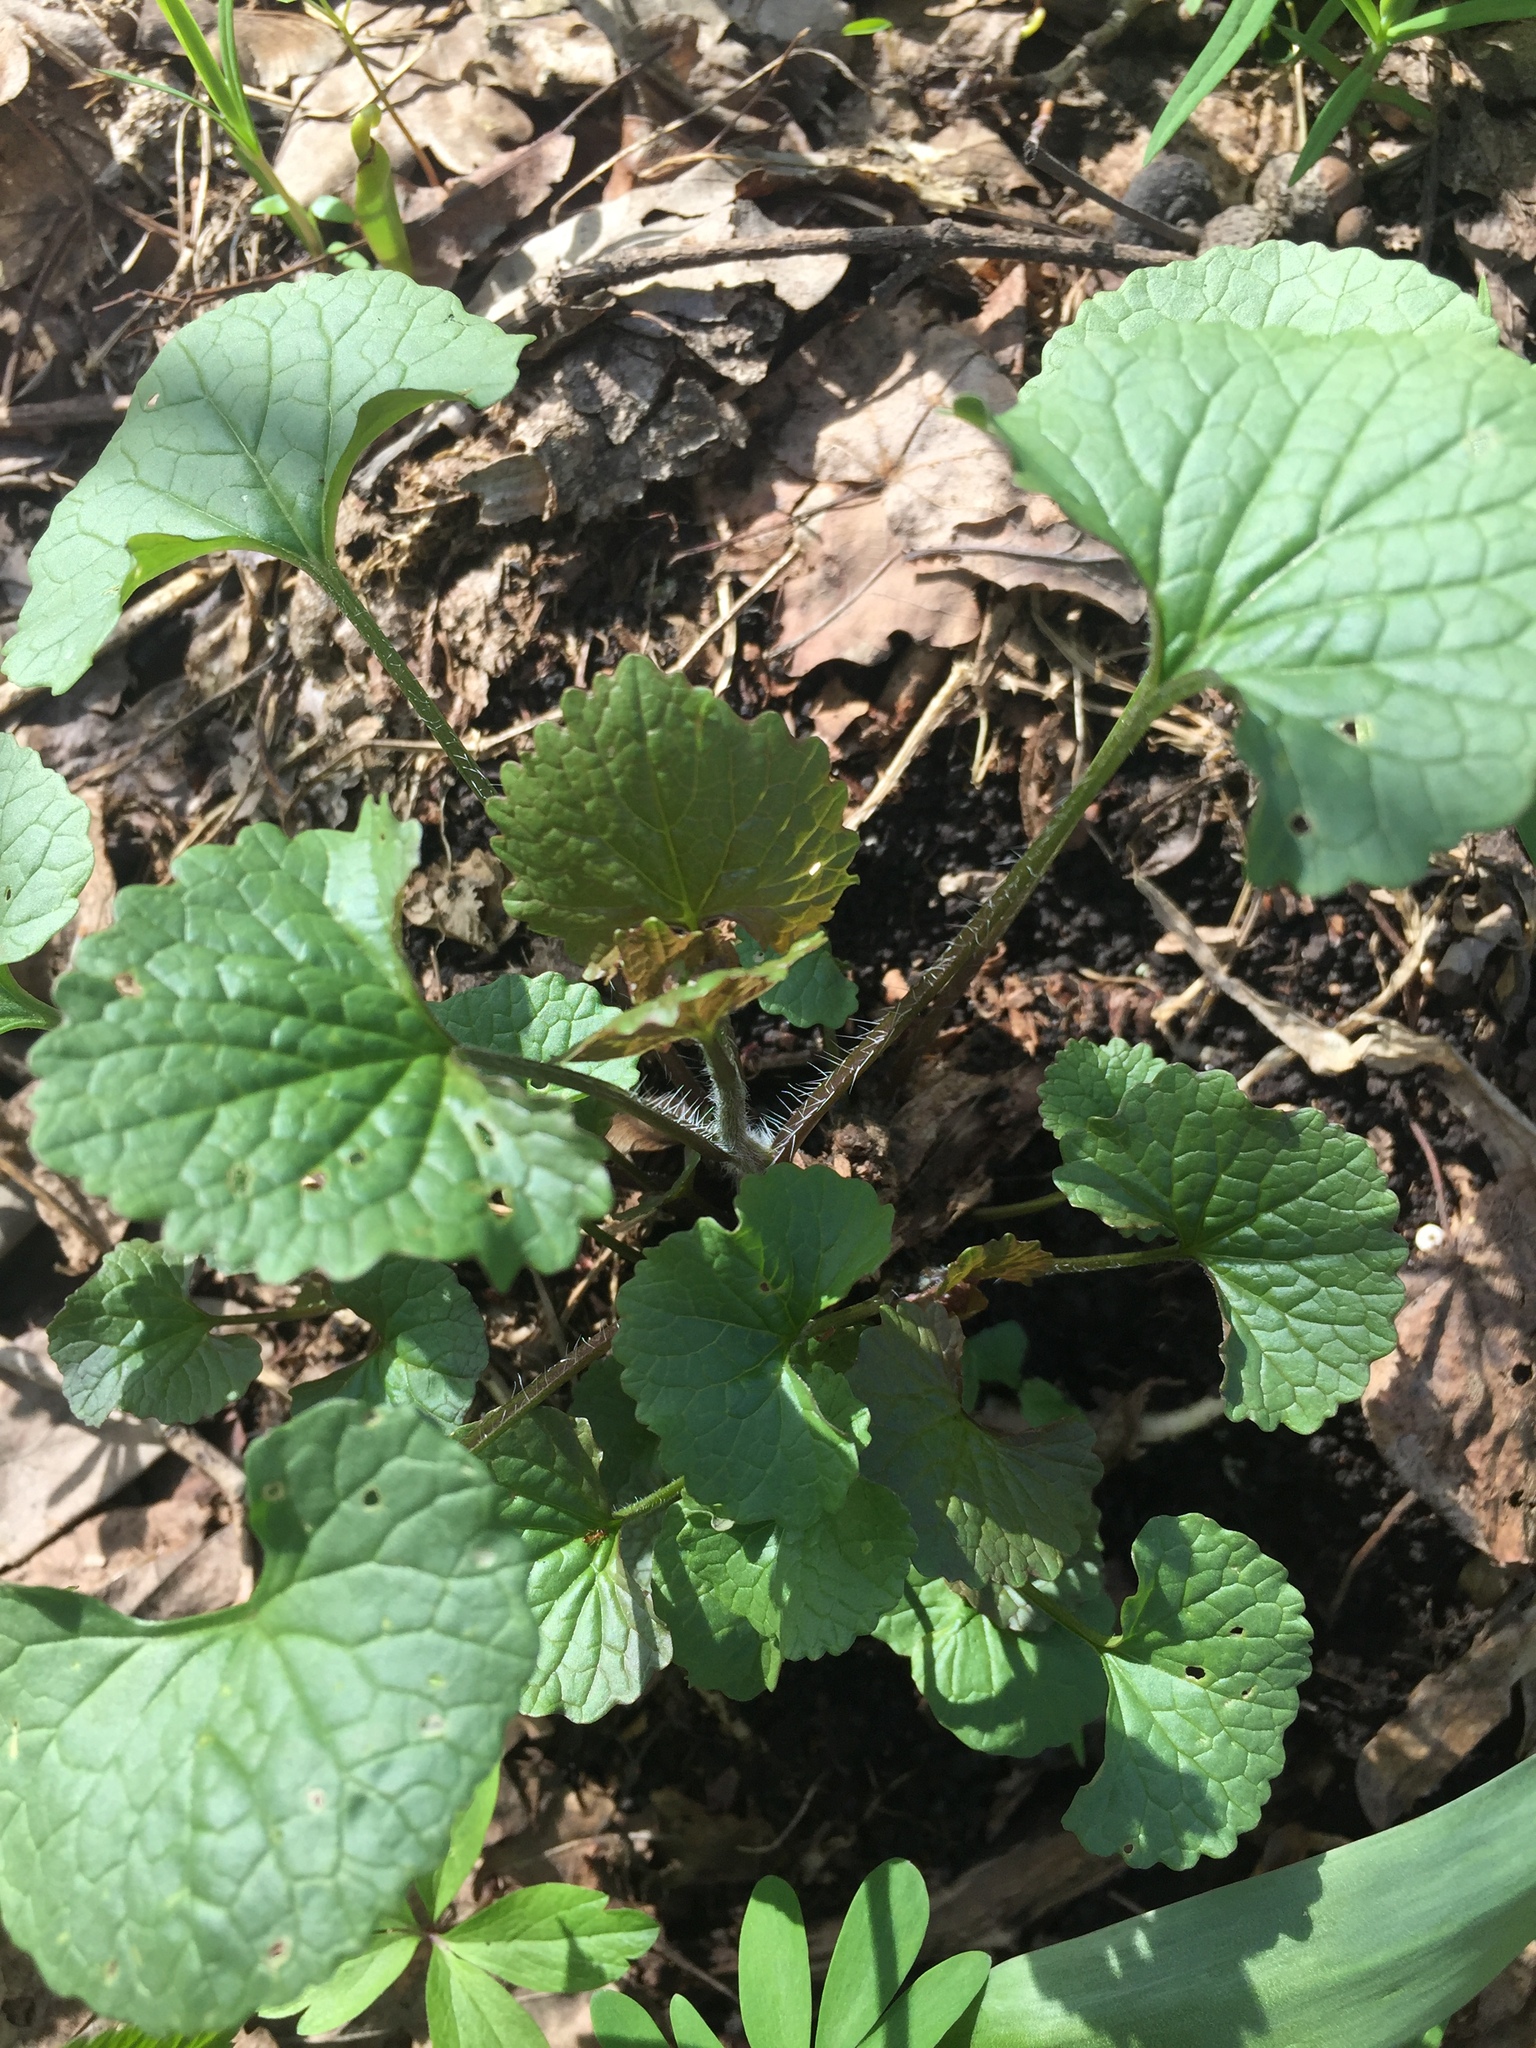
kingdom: Plantae
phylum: Tracheophyta
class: Magnoliopsida
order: Brassicales
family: Brassicaceae
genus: Alliaria
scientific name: Alliaria petiolata
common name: Garlic mustard
